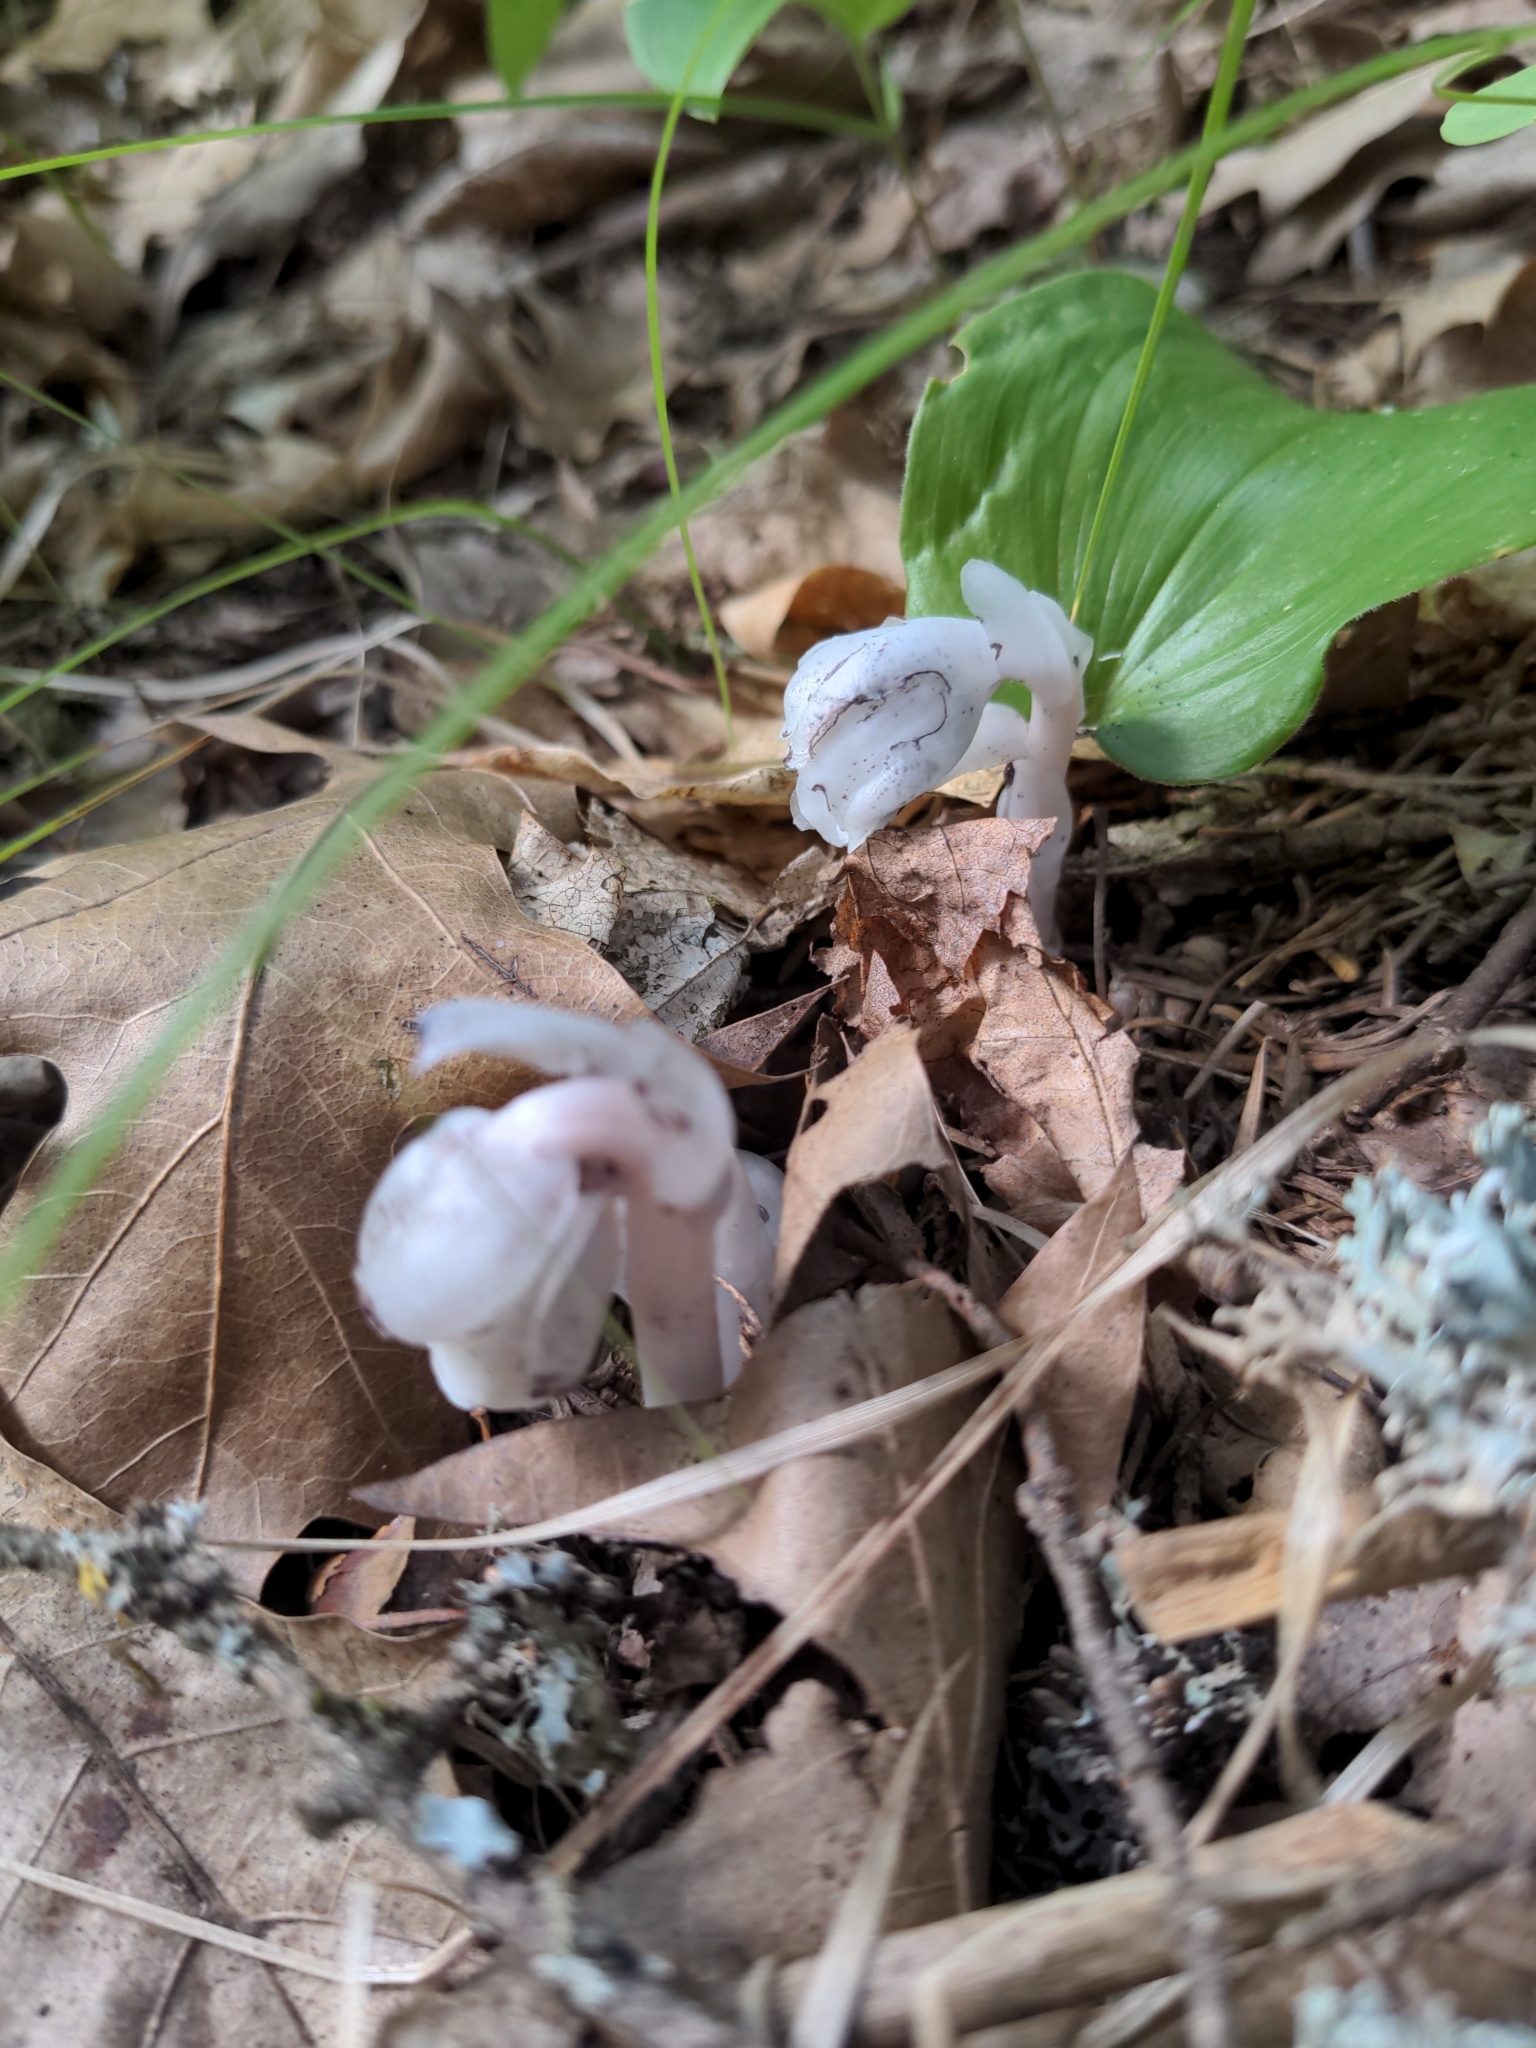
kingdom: Plantae
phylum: Tracheophyta
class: Magnoliopsida
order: Ericales
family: Ericaceae
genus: Monotropa
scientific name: Monotropa uniflora
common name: Convulsion root
